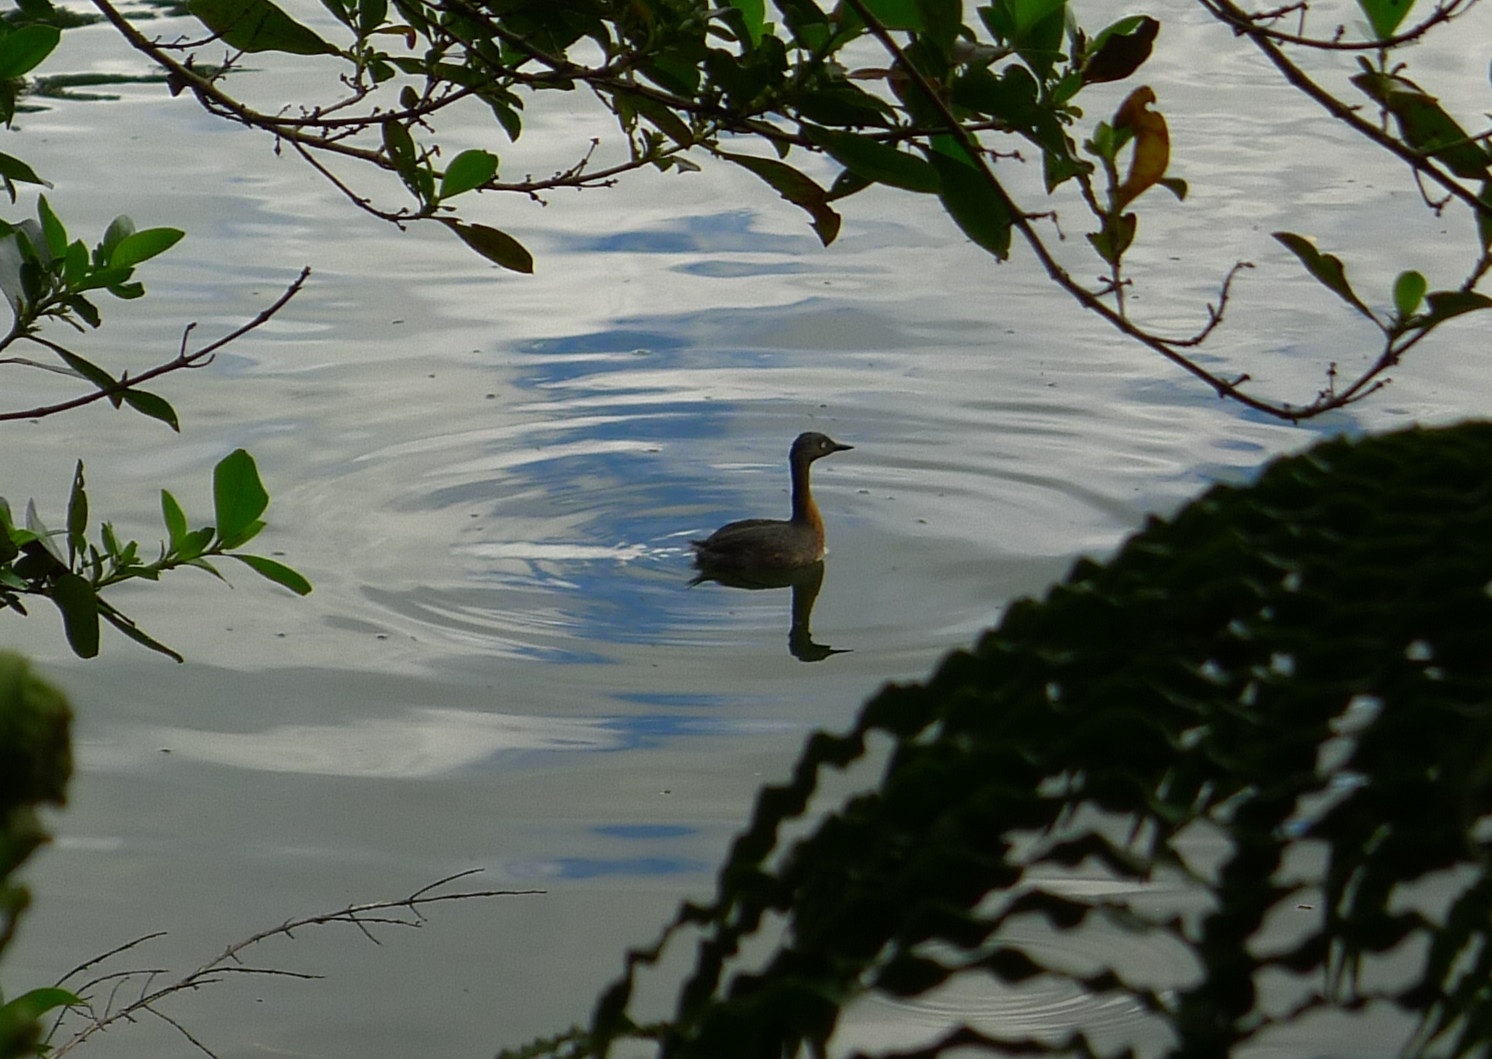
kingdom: Animalia
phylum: Chordata
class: Aves
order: Podicipediformes
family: Podicipedidae
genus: Poliocephalus
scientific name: Poliocephalus rufopectus
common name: New zealand grebe
